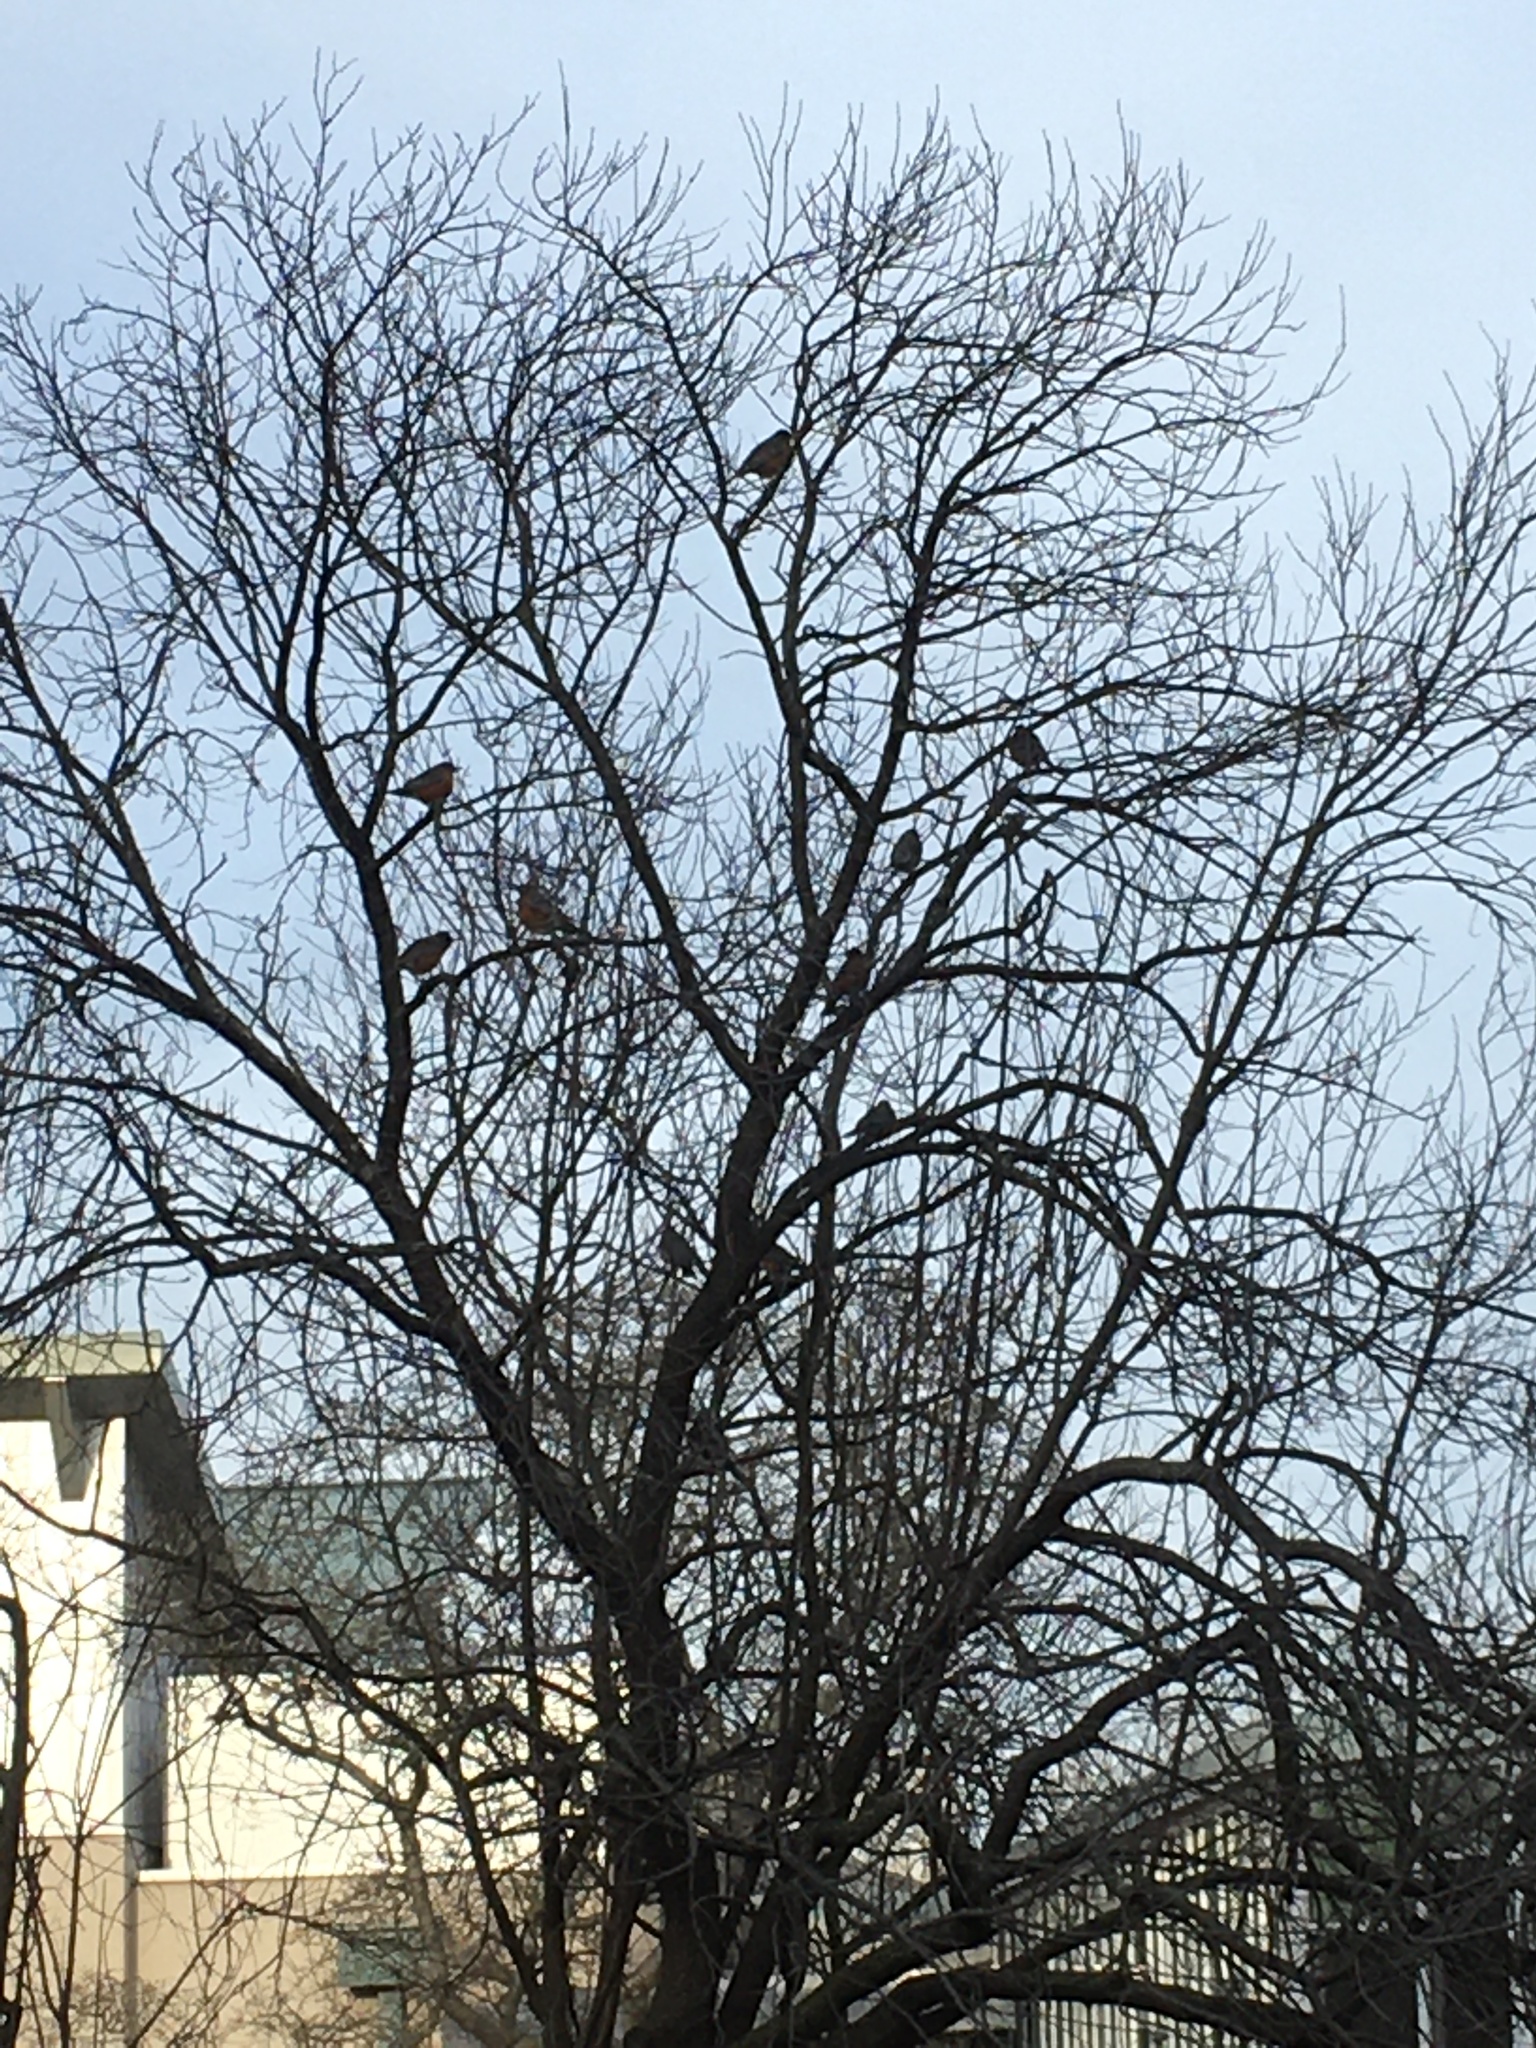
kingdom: Animalia
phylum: Chordata
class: Aves
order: Passeriformes
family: Turdidae
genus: Turdus
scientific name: Turdus migratorius
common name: American robin
